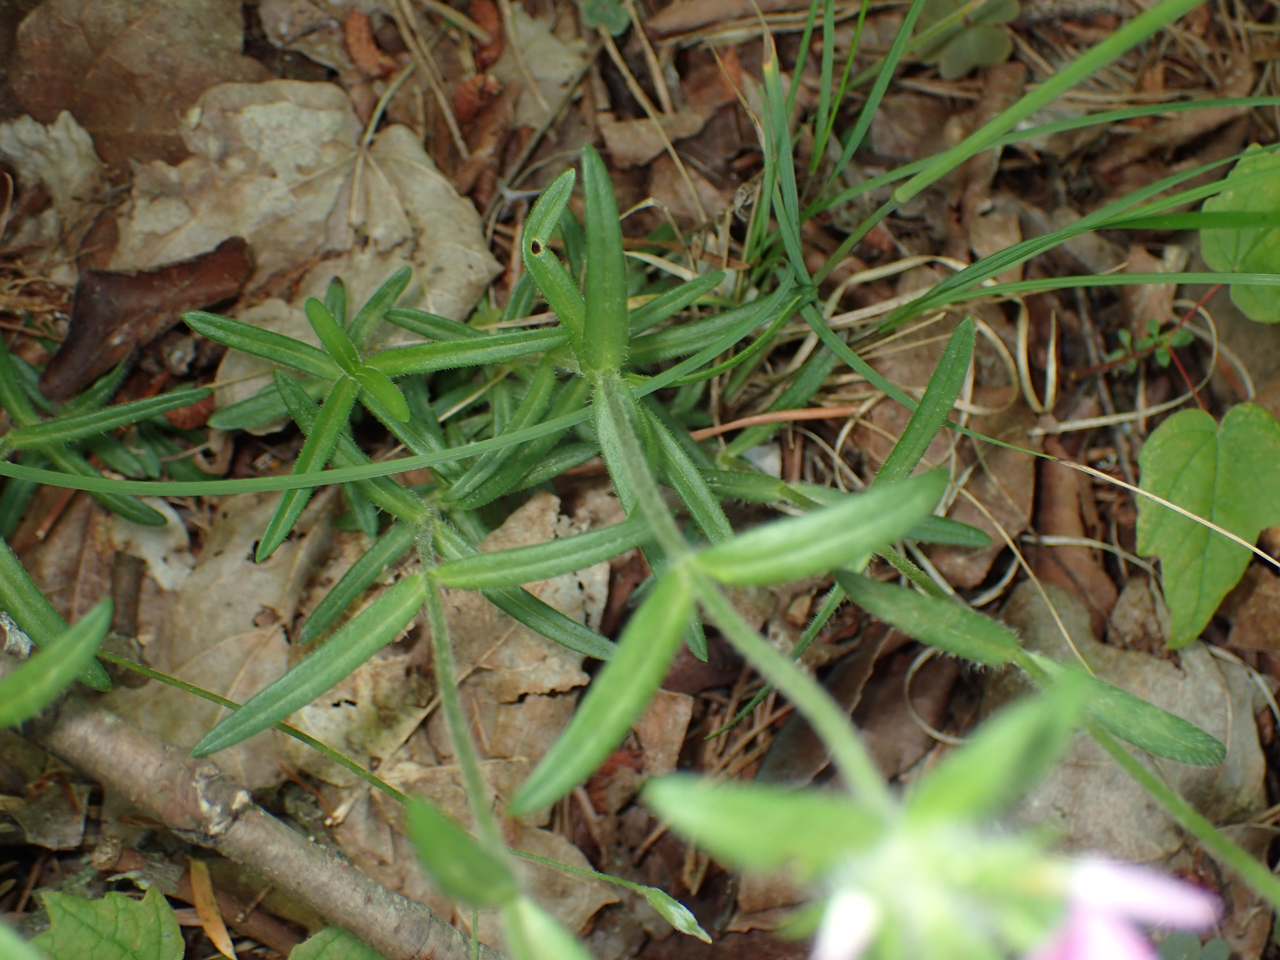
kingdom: Plantae
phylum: Tracheophyta
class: Magnoliopsida
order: Ericales
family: Polemoniaceae
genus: Phlox
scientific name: Phlox pilosa
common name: Prairie phlox
